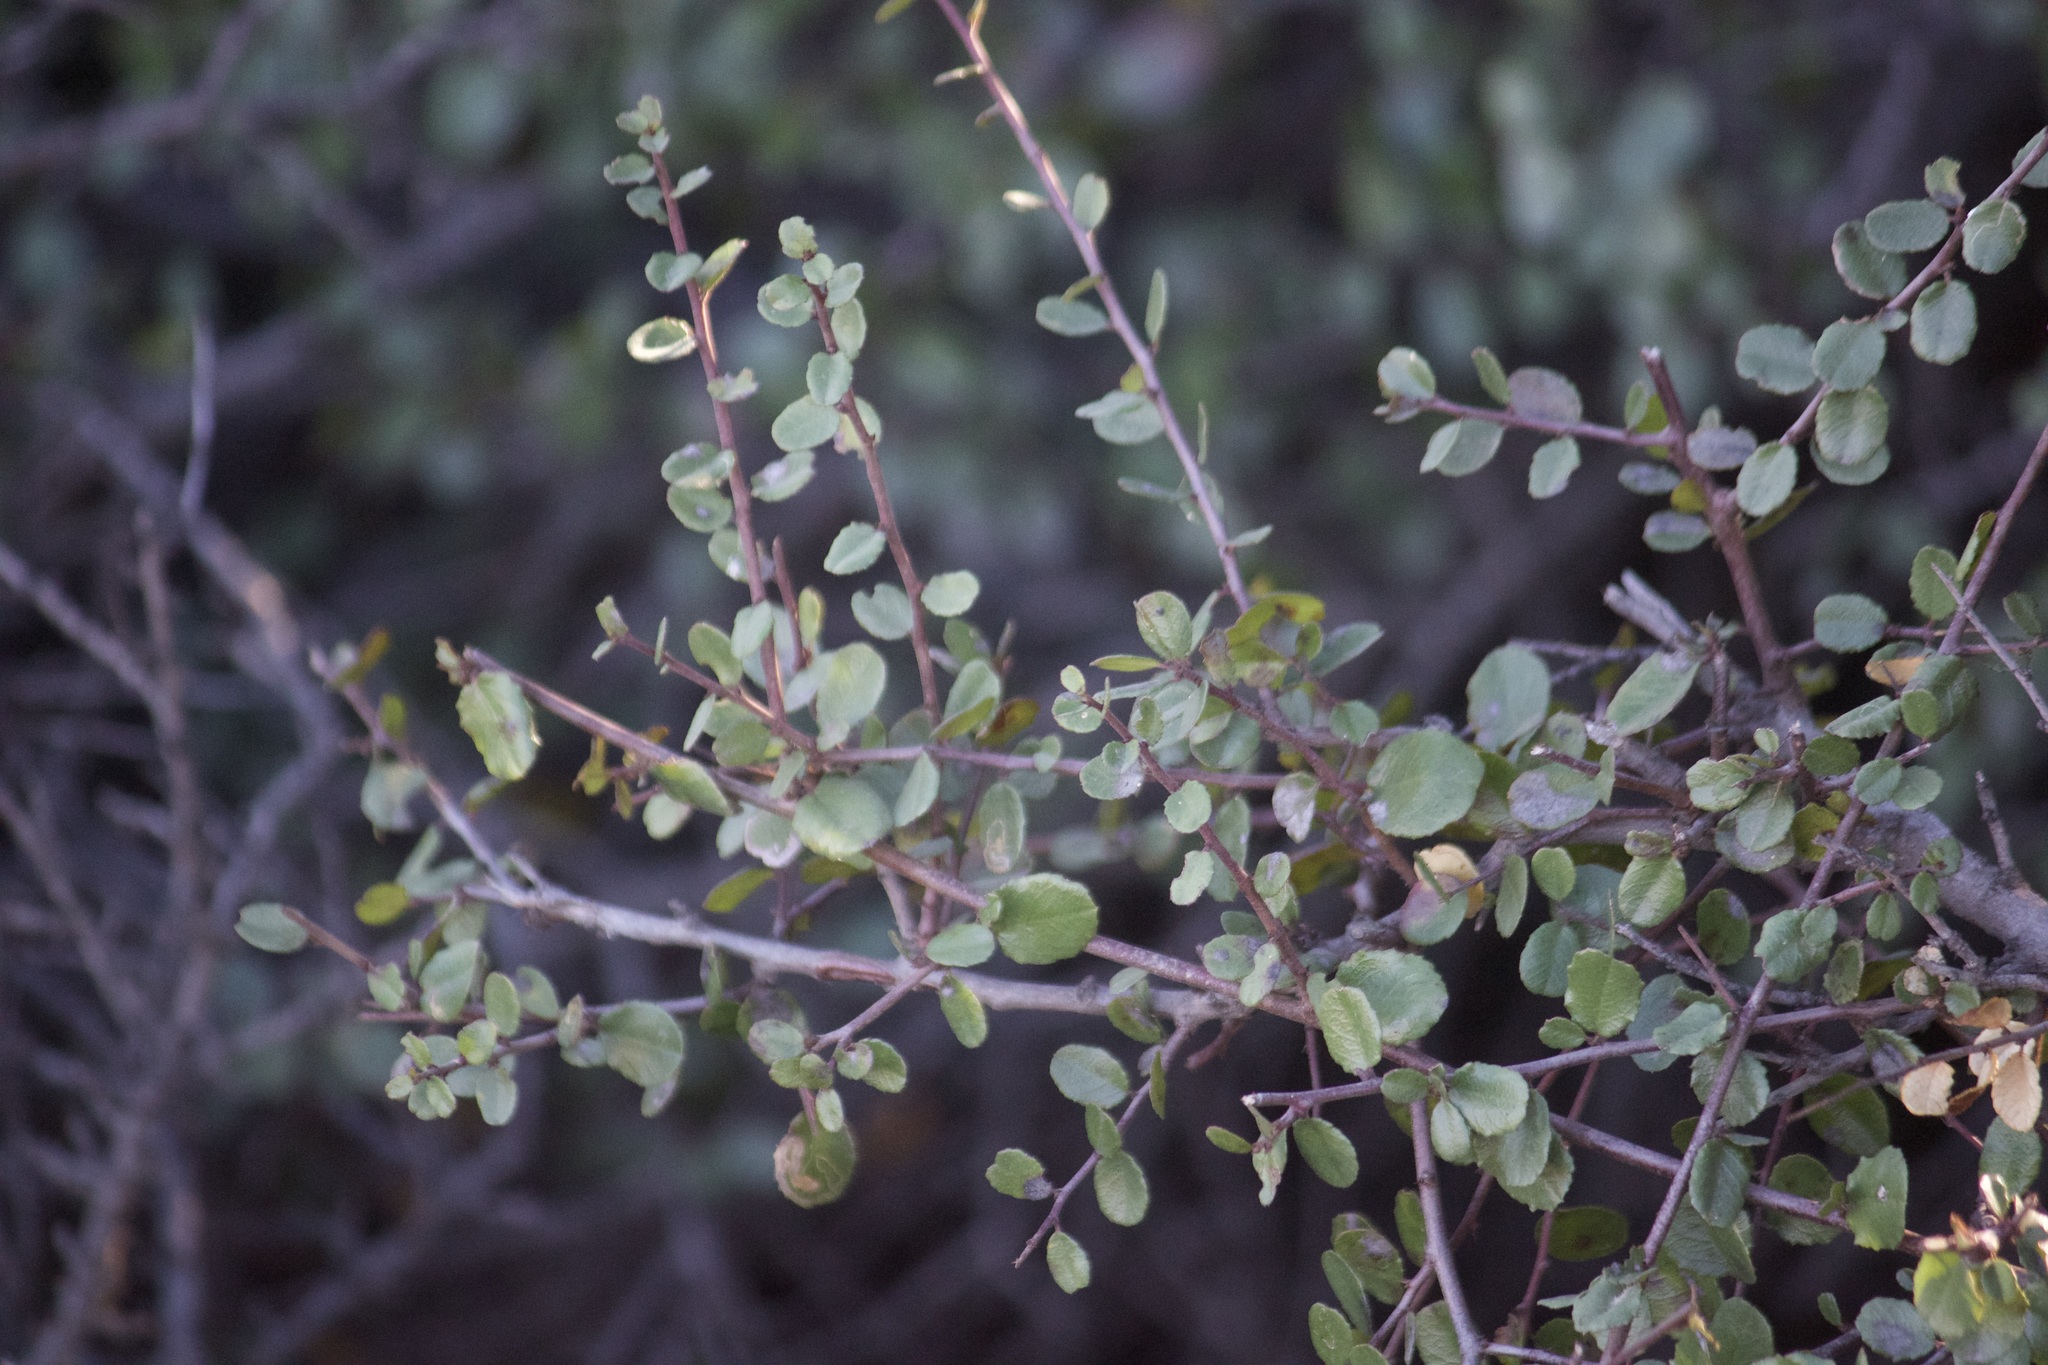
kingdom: Plantae
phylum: Tracheophyta
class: Magnoliopsida
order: Rosales
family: Rhamnaceae
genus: Endotropis
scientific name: Endotropis crocea
